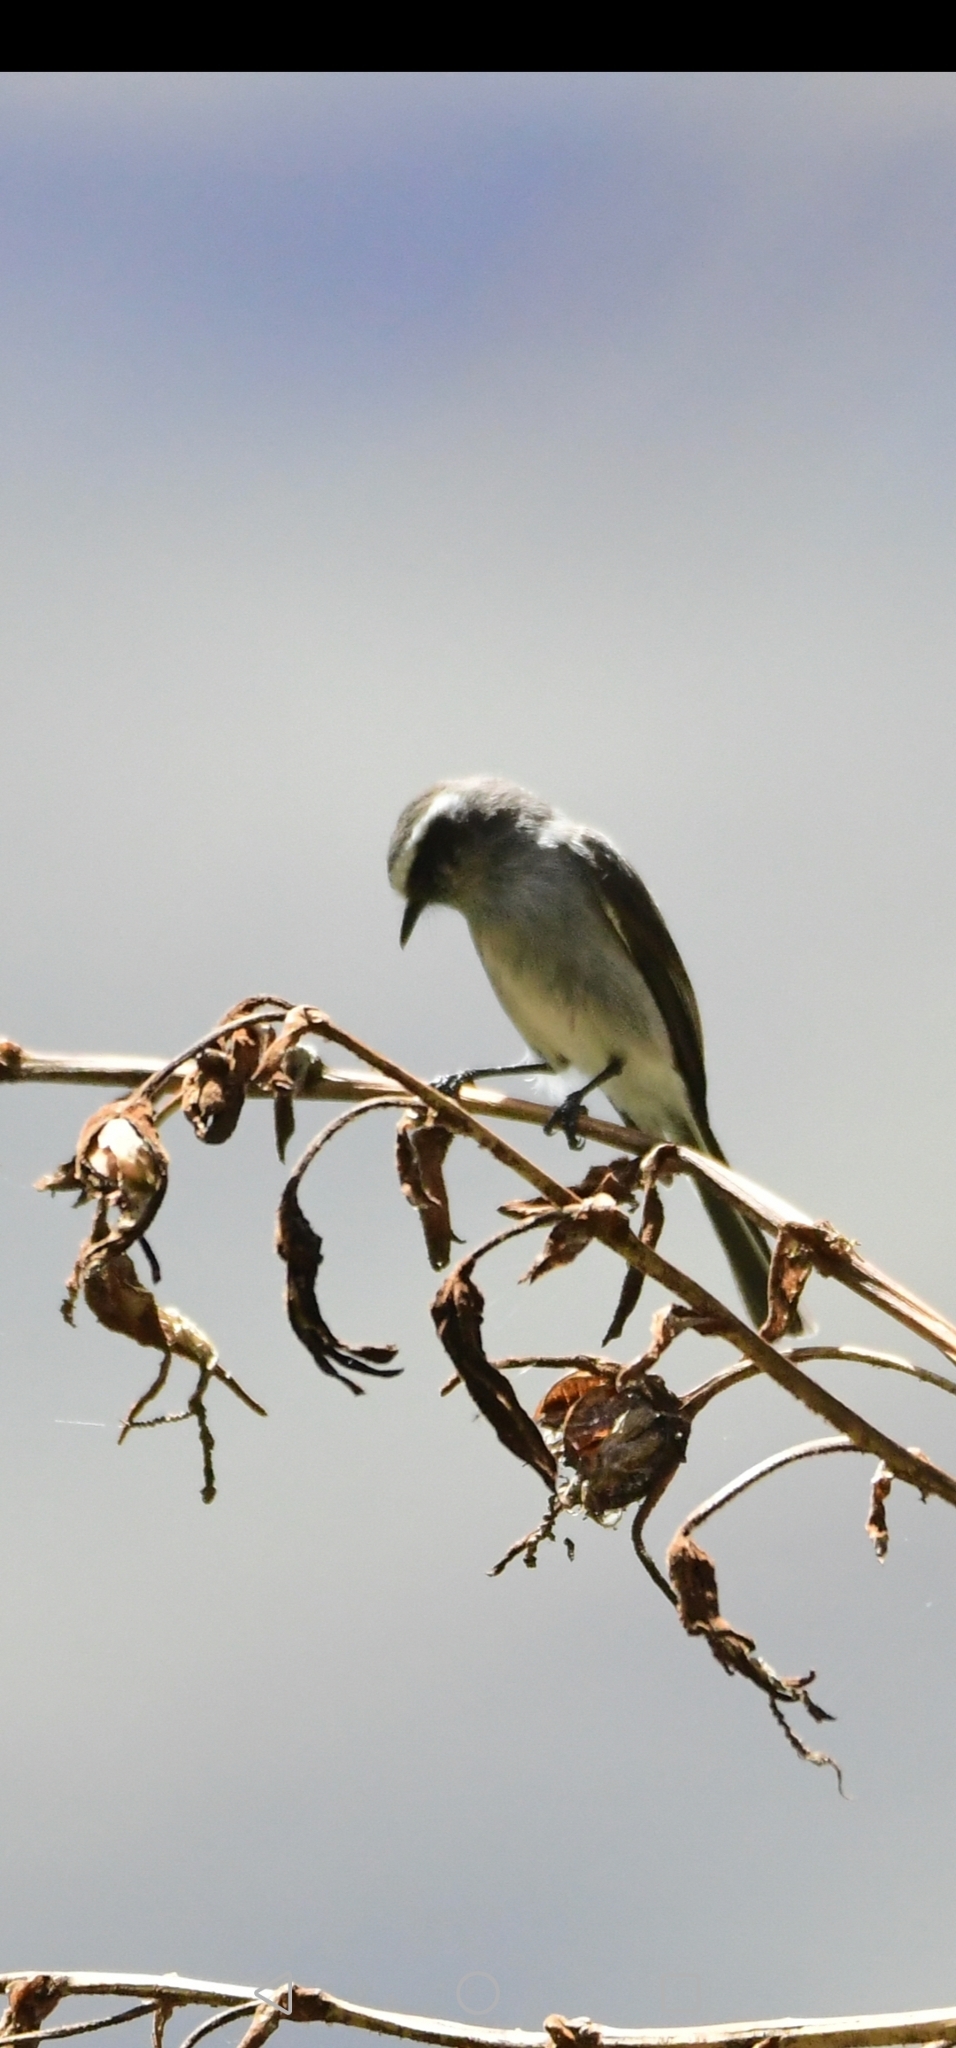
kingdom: Animalia
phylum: Chordata
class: Aves
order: Passeriformes
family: Tyrannidae
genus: Ochthoeca
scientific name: Ochthoeca leucophrys
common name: White-browed chat-tyrant
